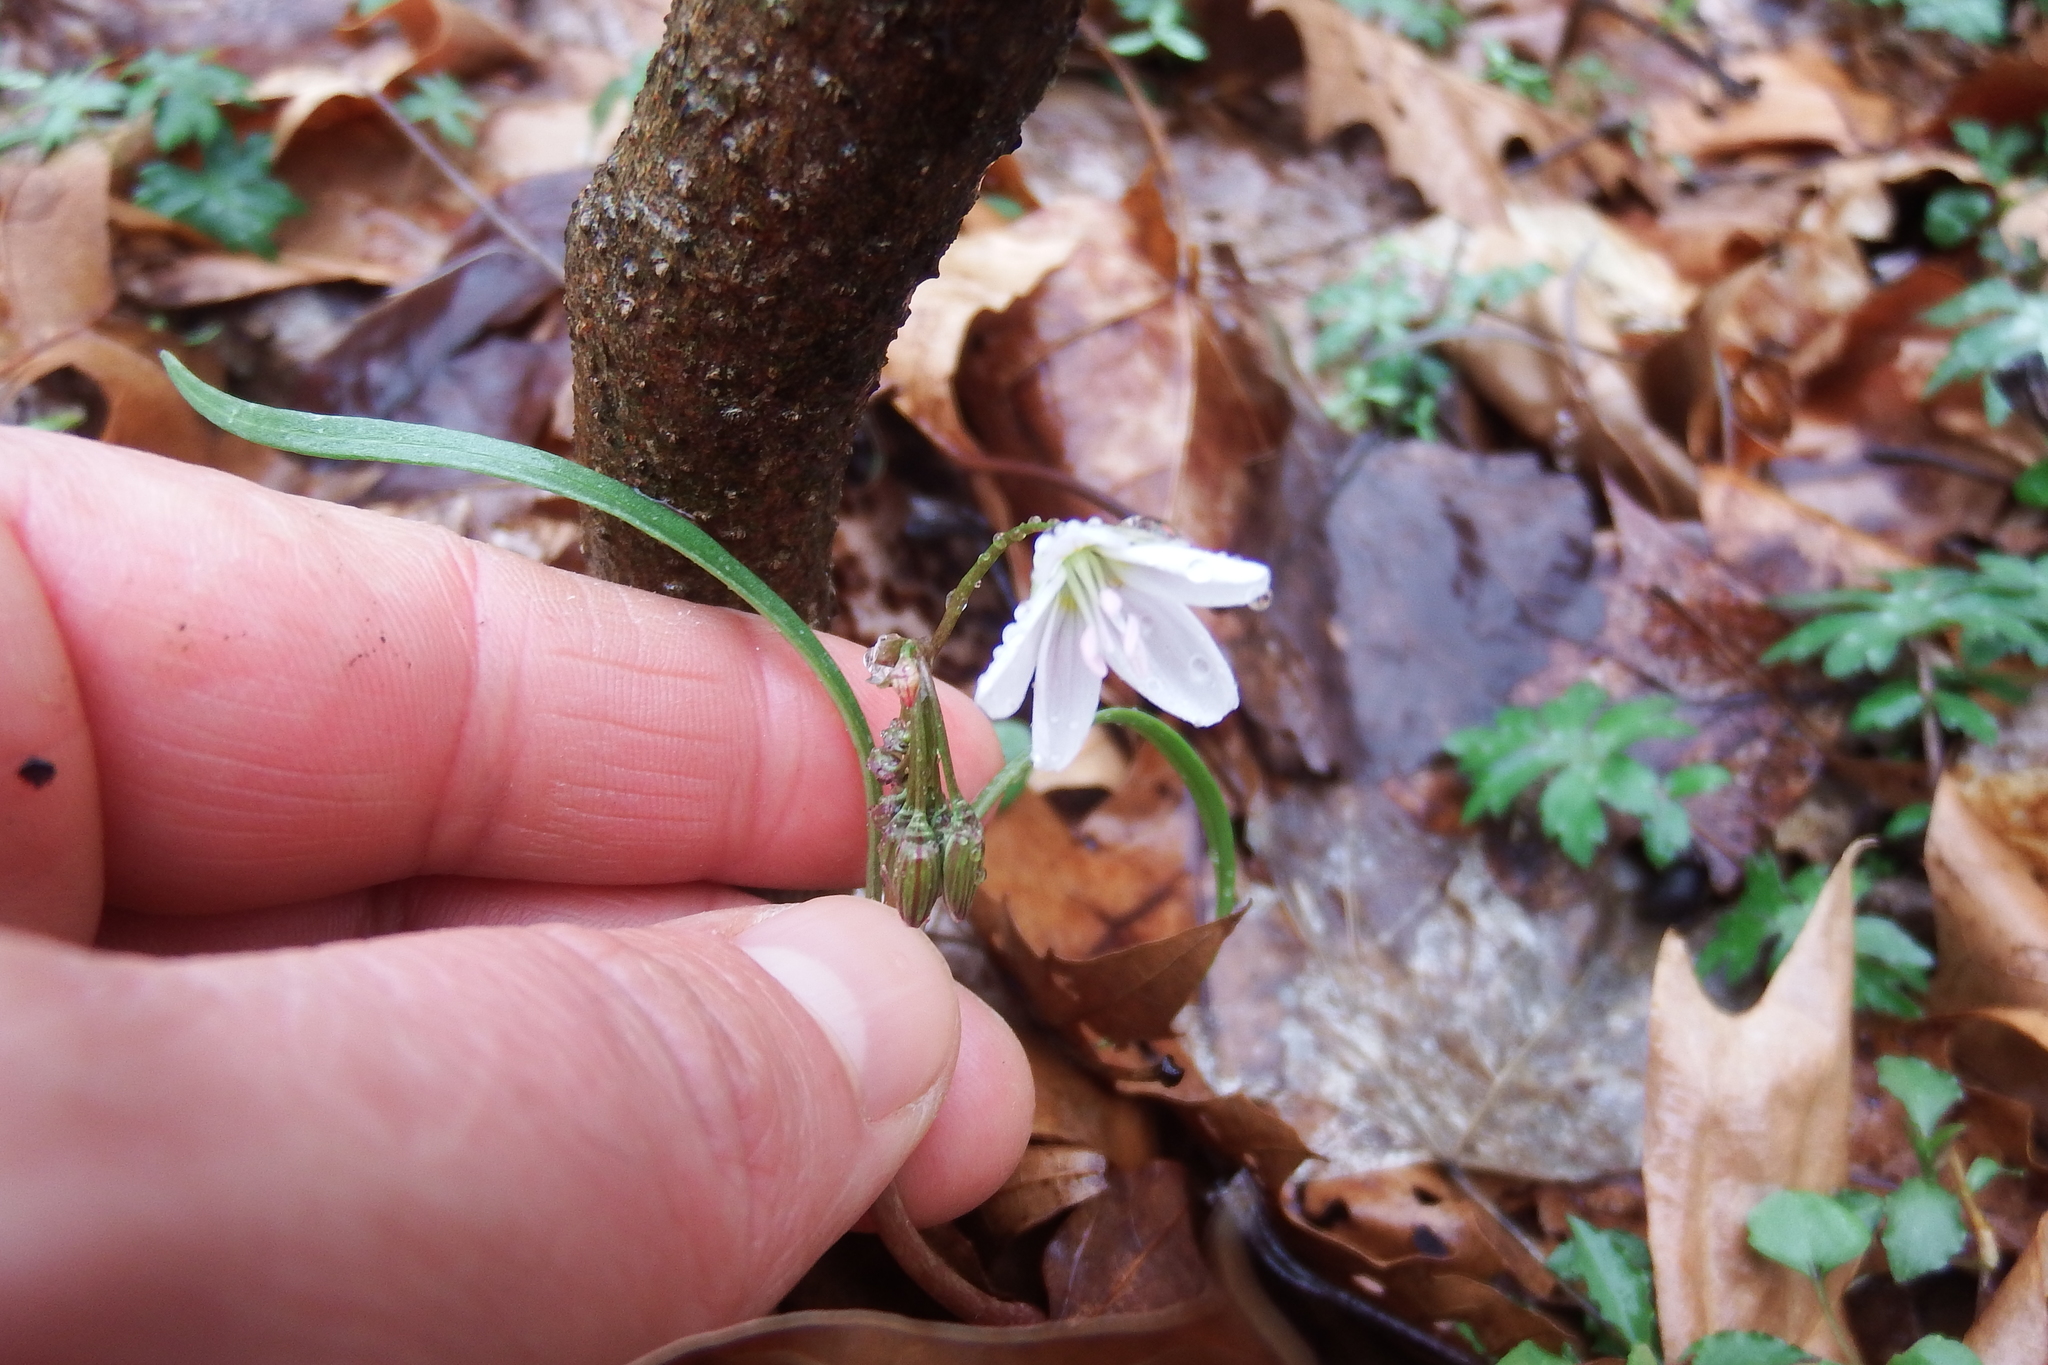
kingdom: Plantae
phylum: Tracheophyta
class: Magnoliopsida
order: Caryophyllales
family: Montiaceae
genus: Claytonia
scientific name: Claytonia virginica
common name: Virginia springbeauty
